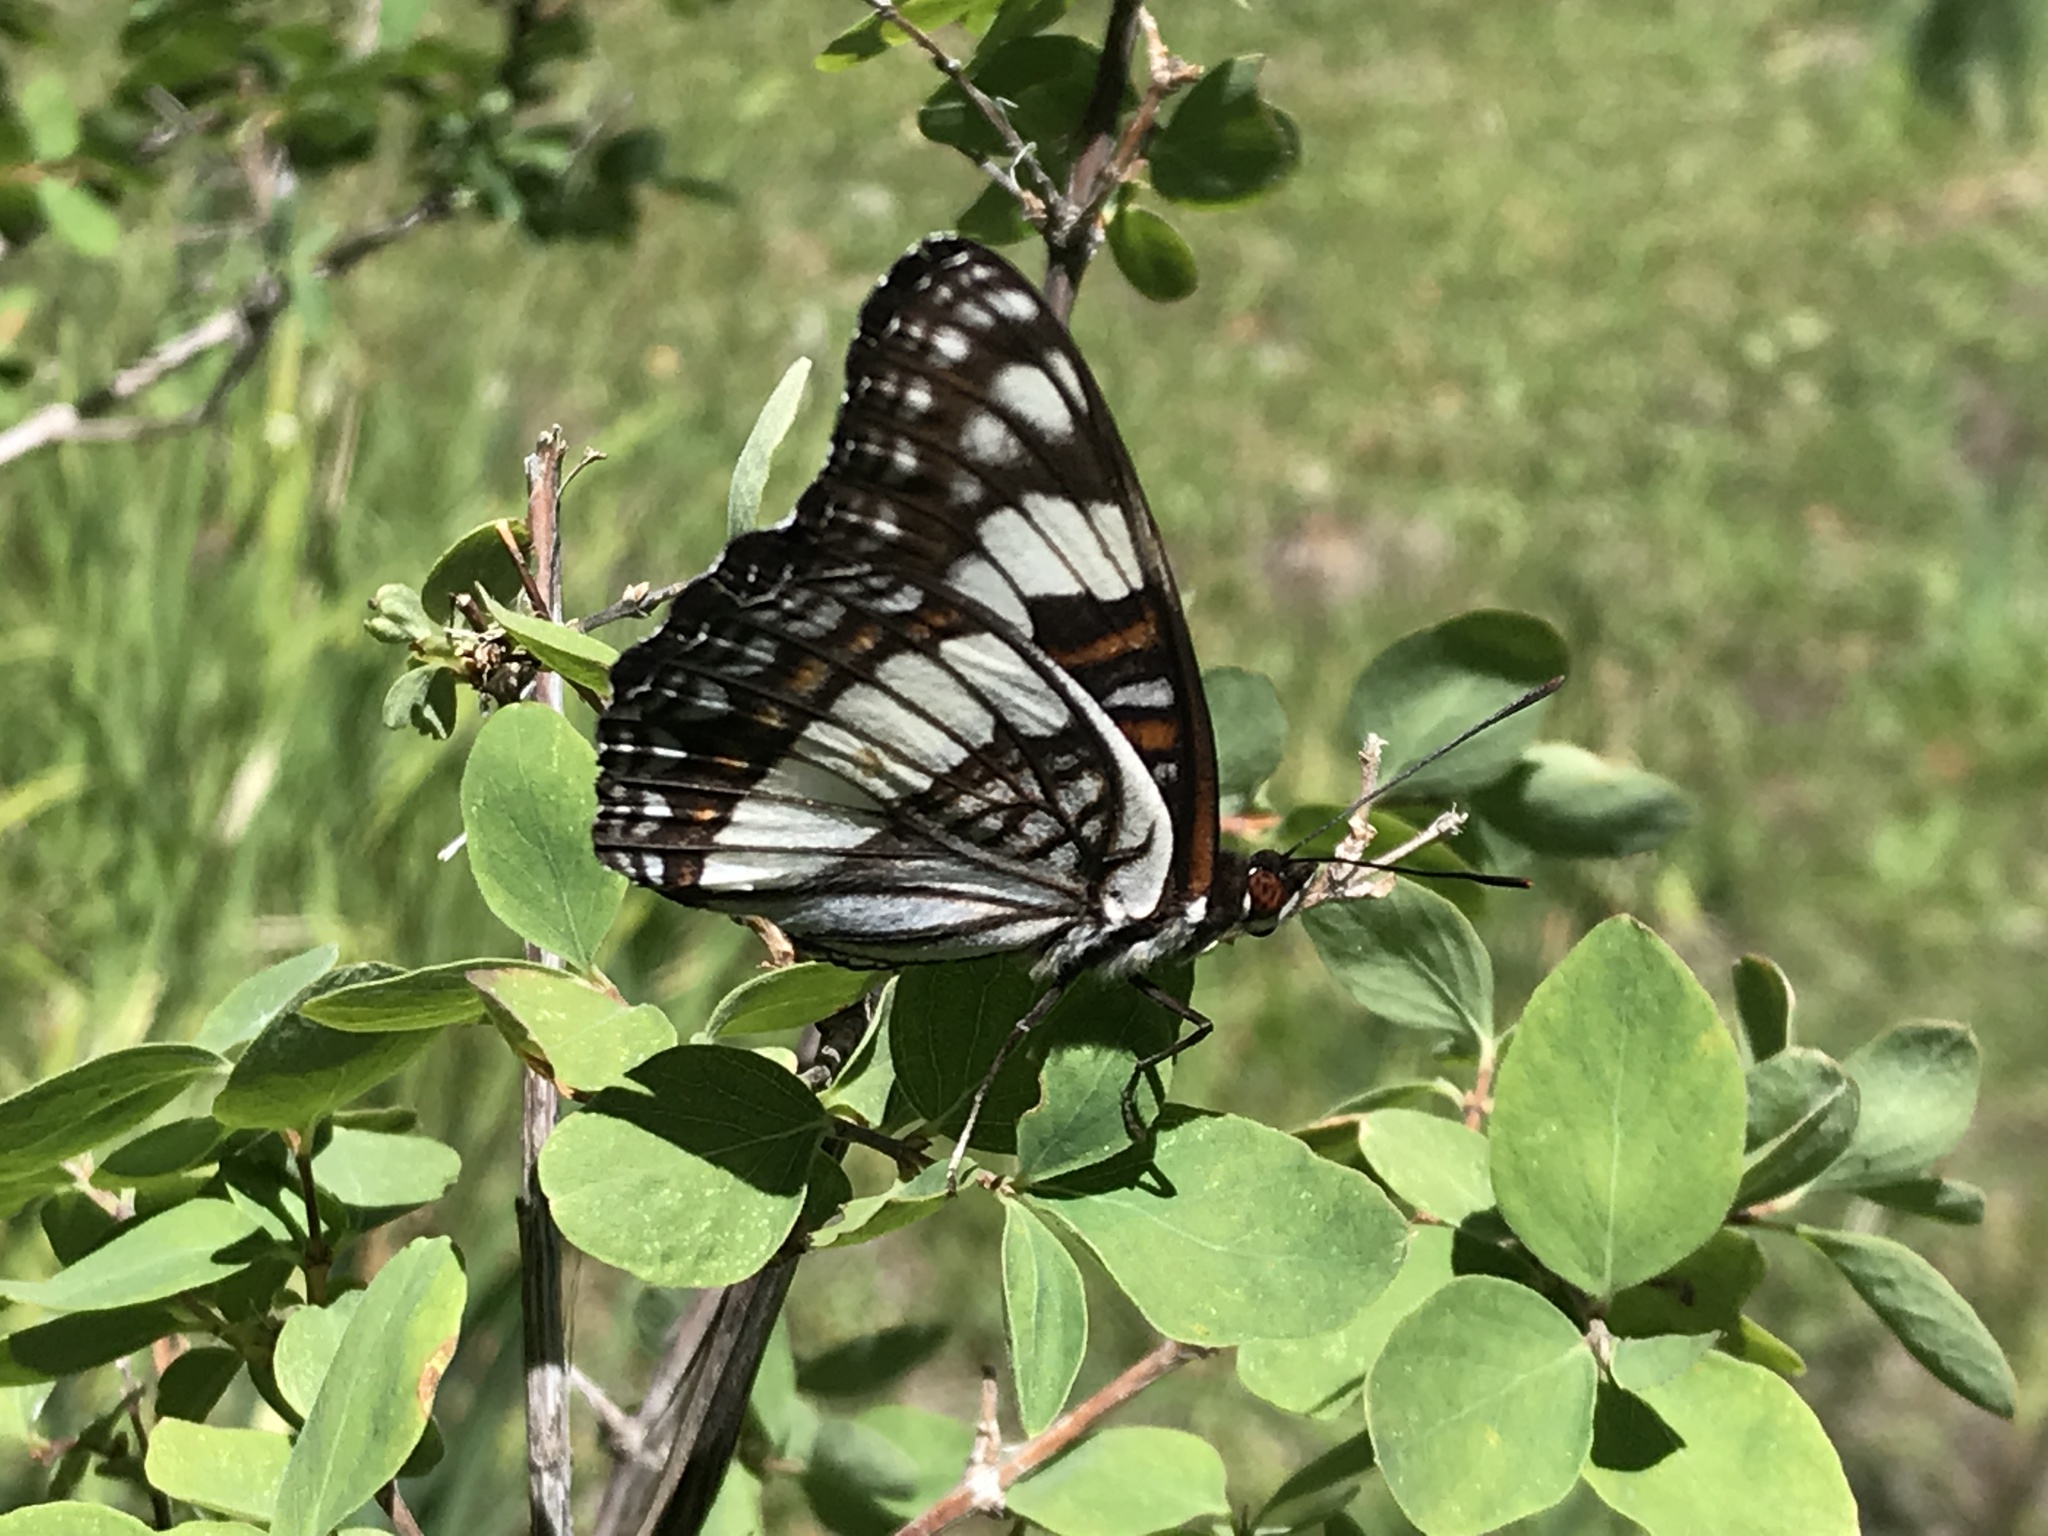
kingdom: Animalia
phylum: Arthropoda
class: Insecta
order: Lepidoptera
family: Nymphalidae
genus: Limenitis
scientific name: Limenitis weidemeyerii
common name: Weidemeyer's admiral
